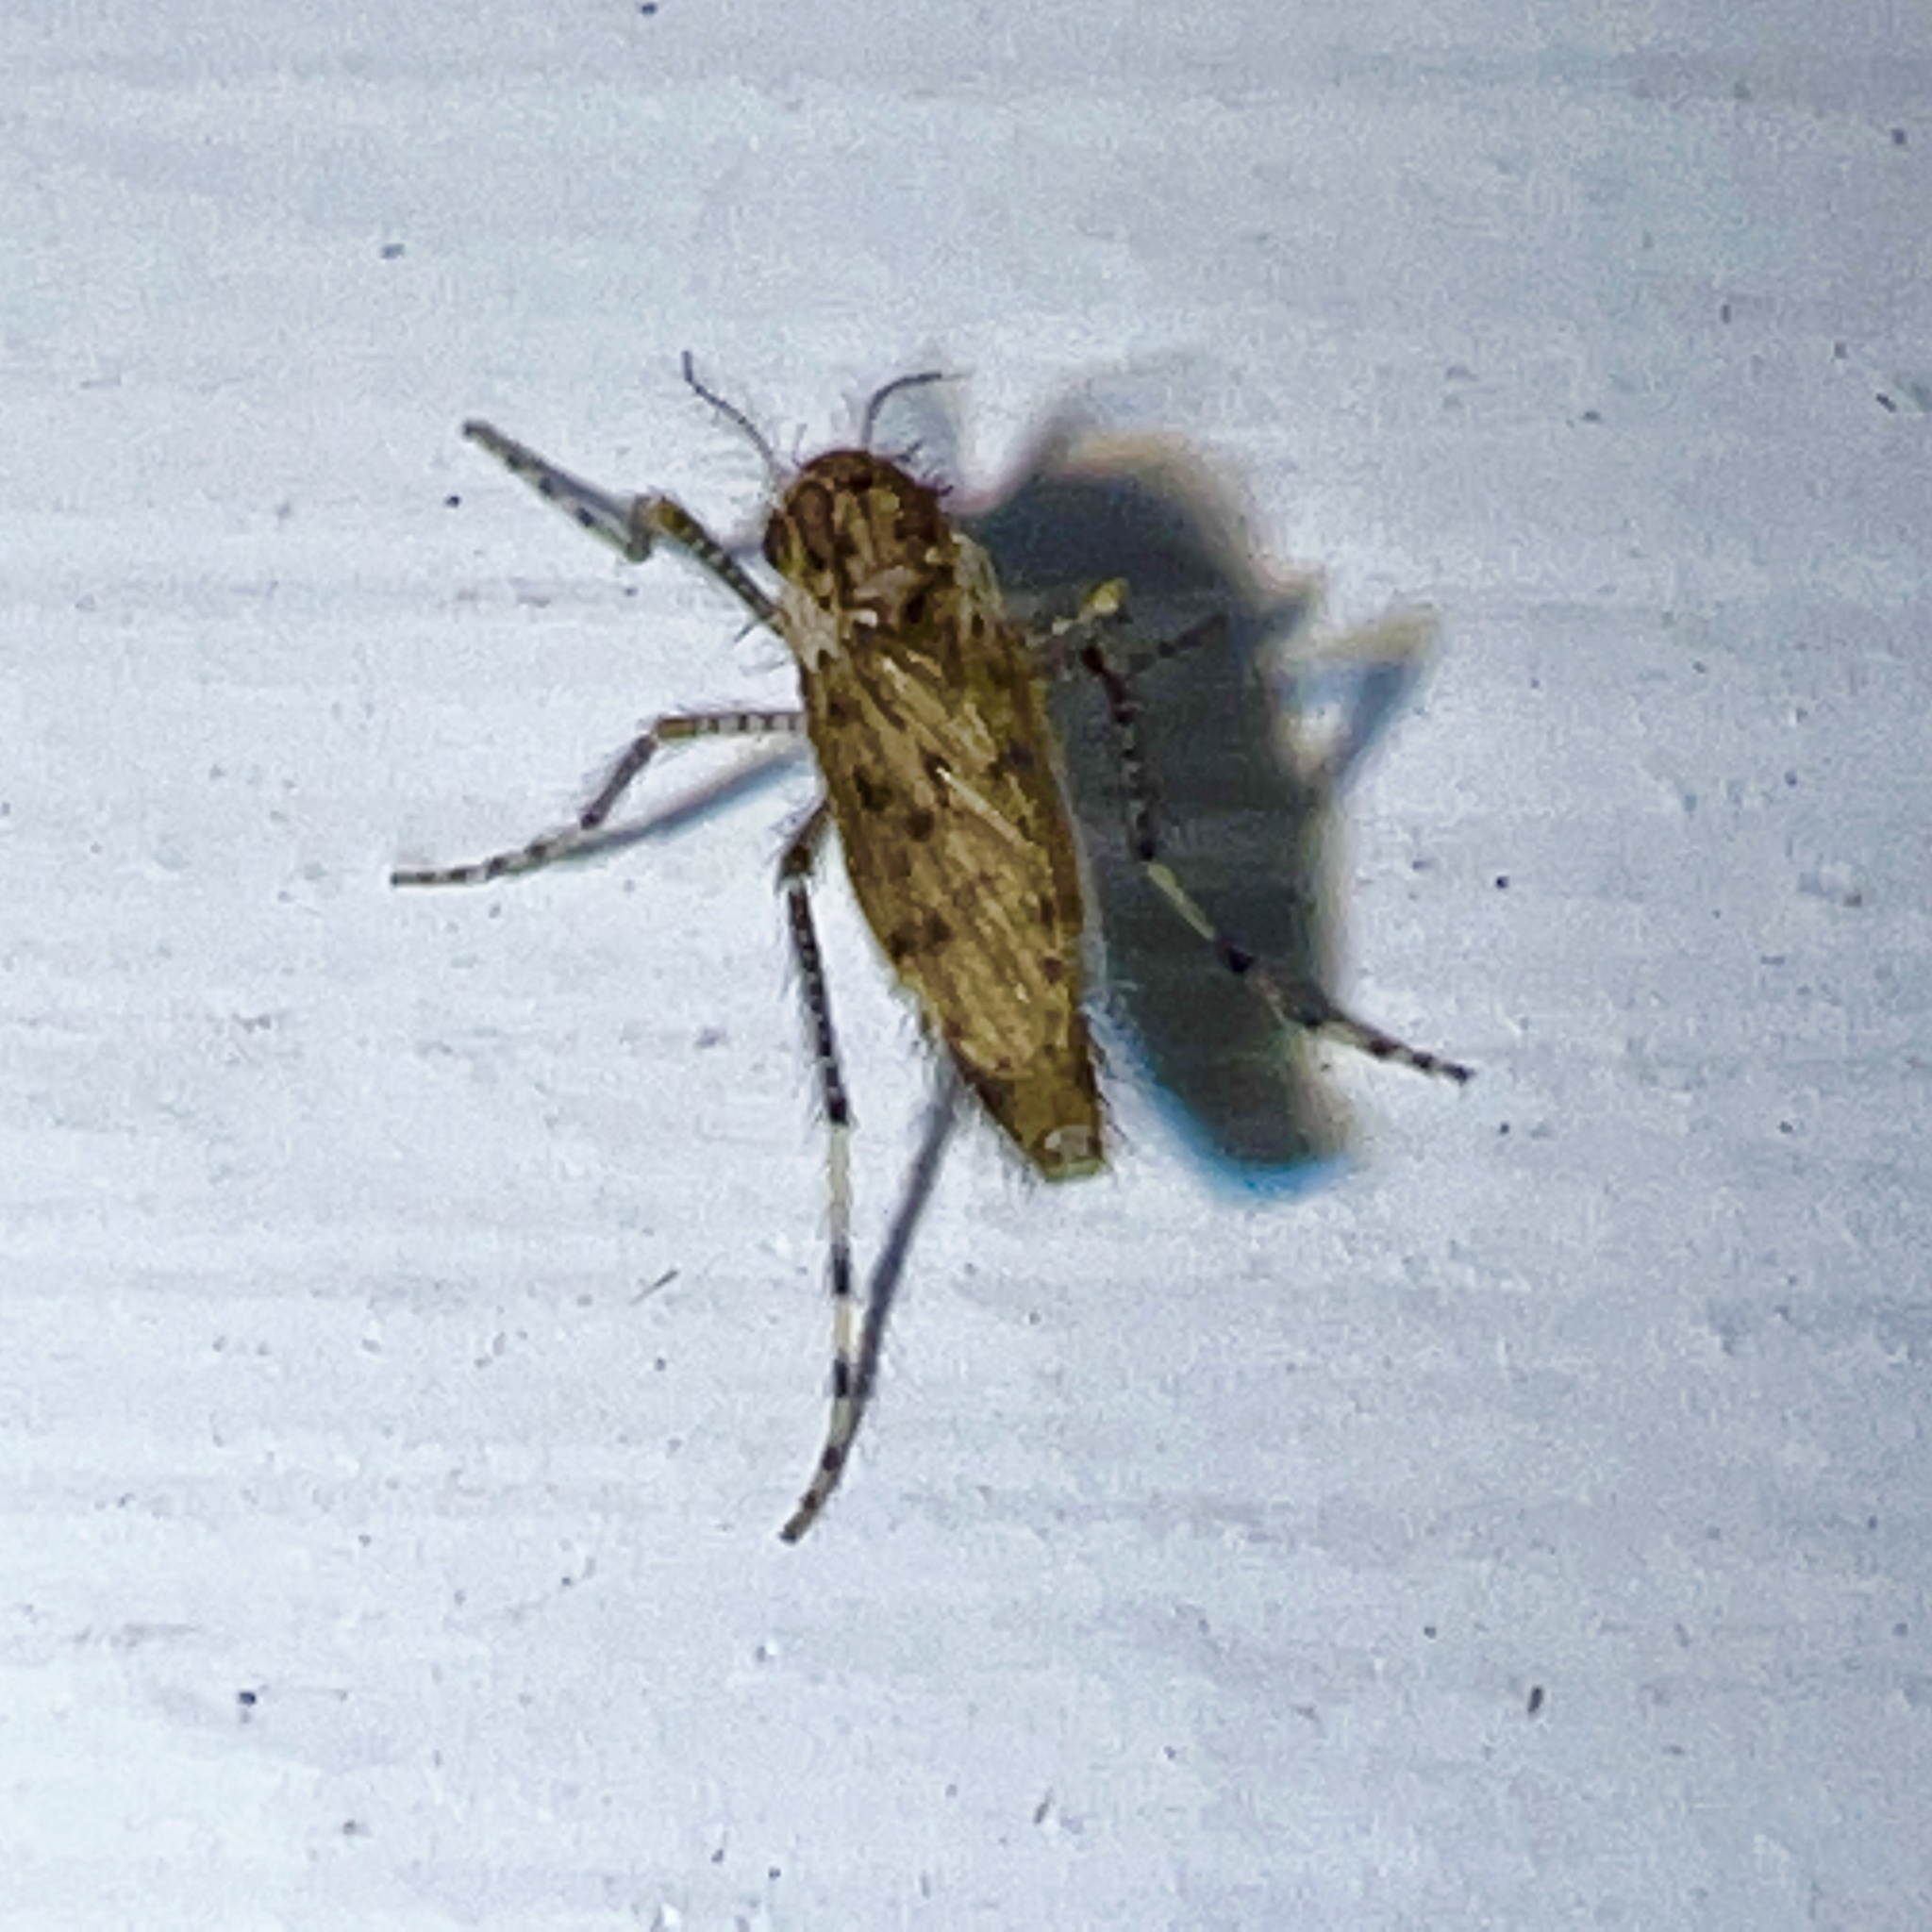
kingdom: Animalia
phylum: Arthropoda
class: Insecta
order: Diptera
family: Chaoboridae
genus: Chaoborus
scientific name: Chaoborus punctipennis
